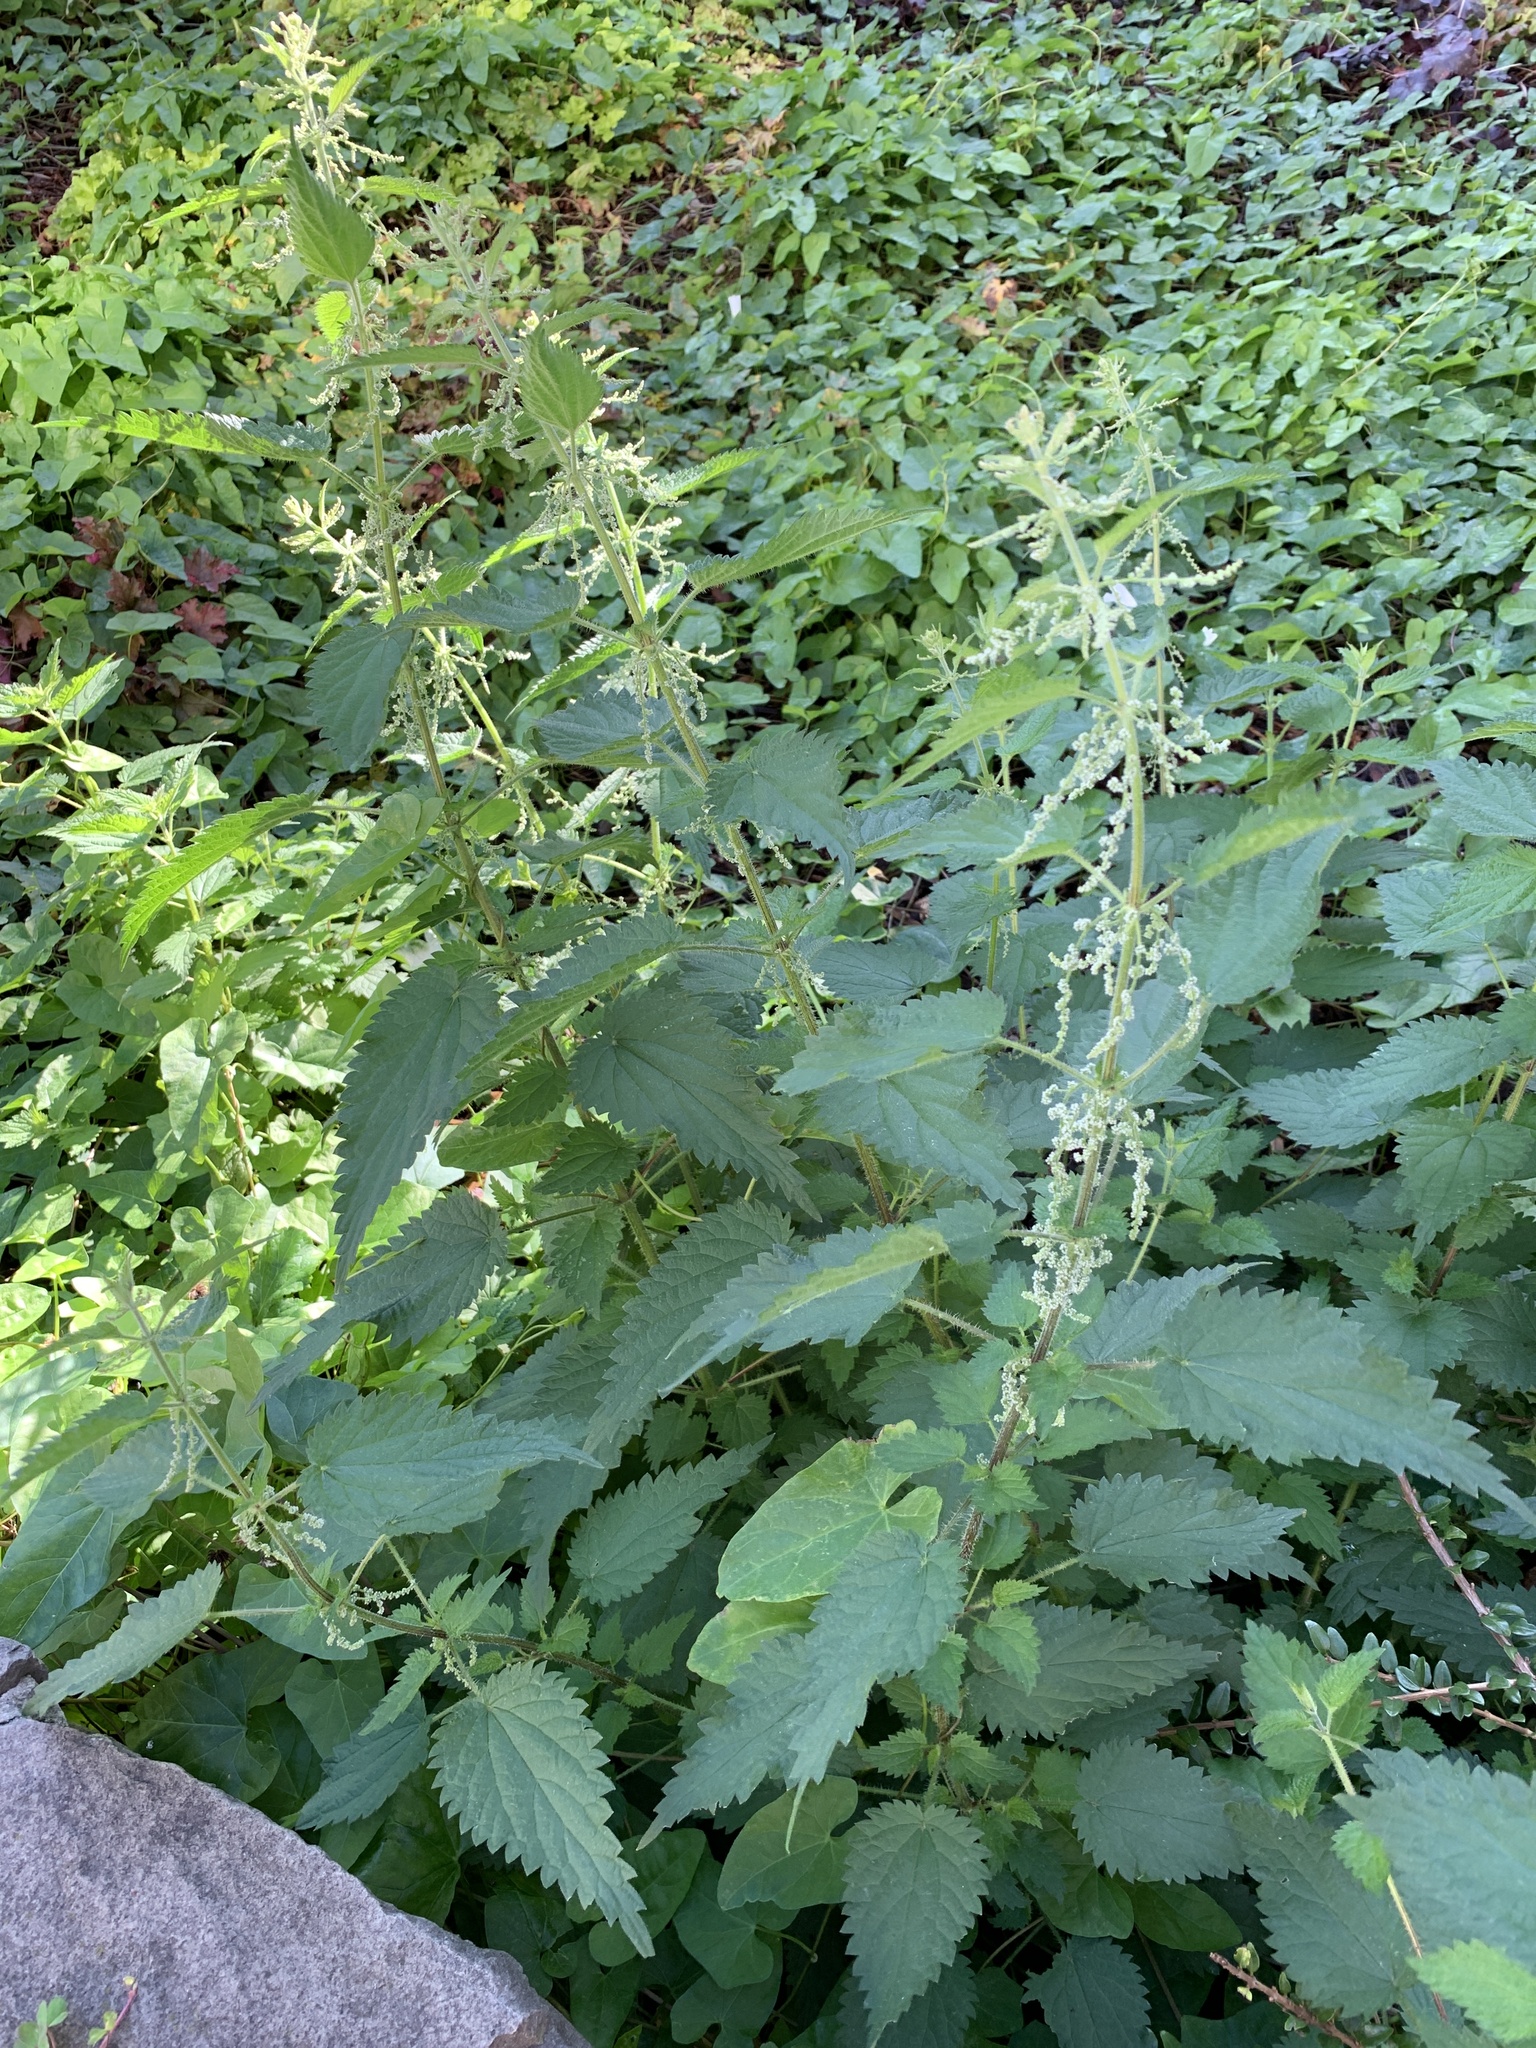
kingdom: Plantae
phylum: Tracheophyta
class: Magnoliopsida
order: Rosales
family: Urticaceae
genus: Urtica
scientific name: Urtica dioica
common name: Common nettle
